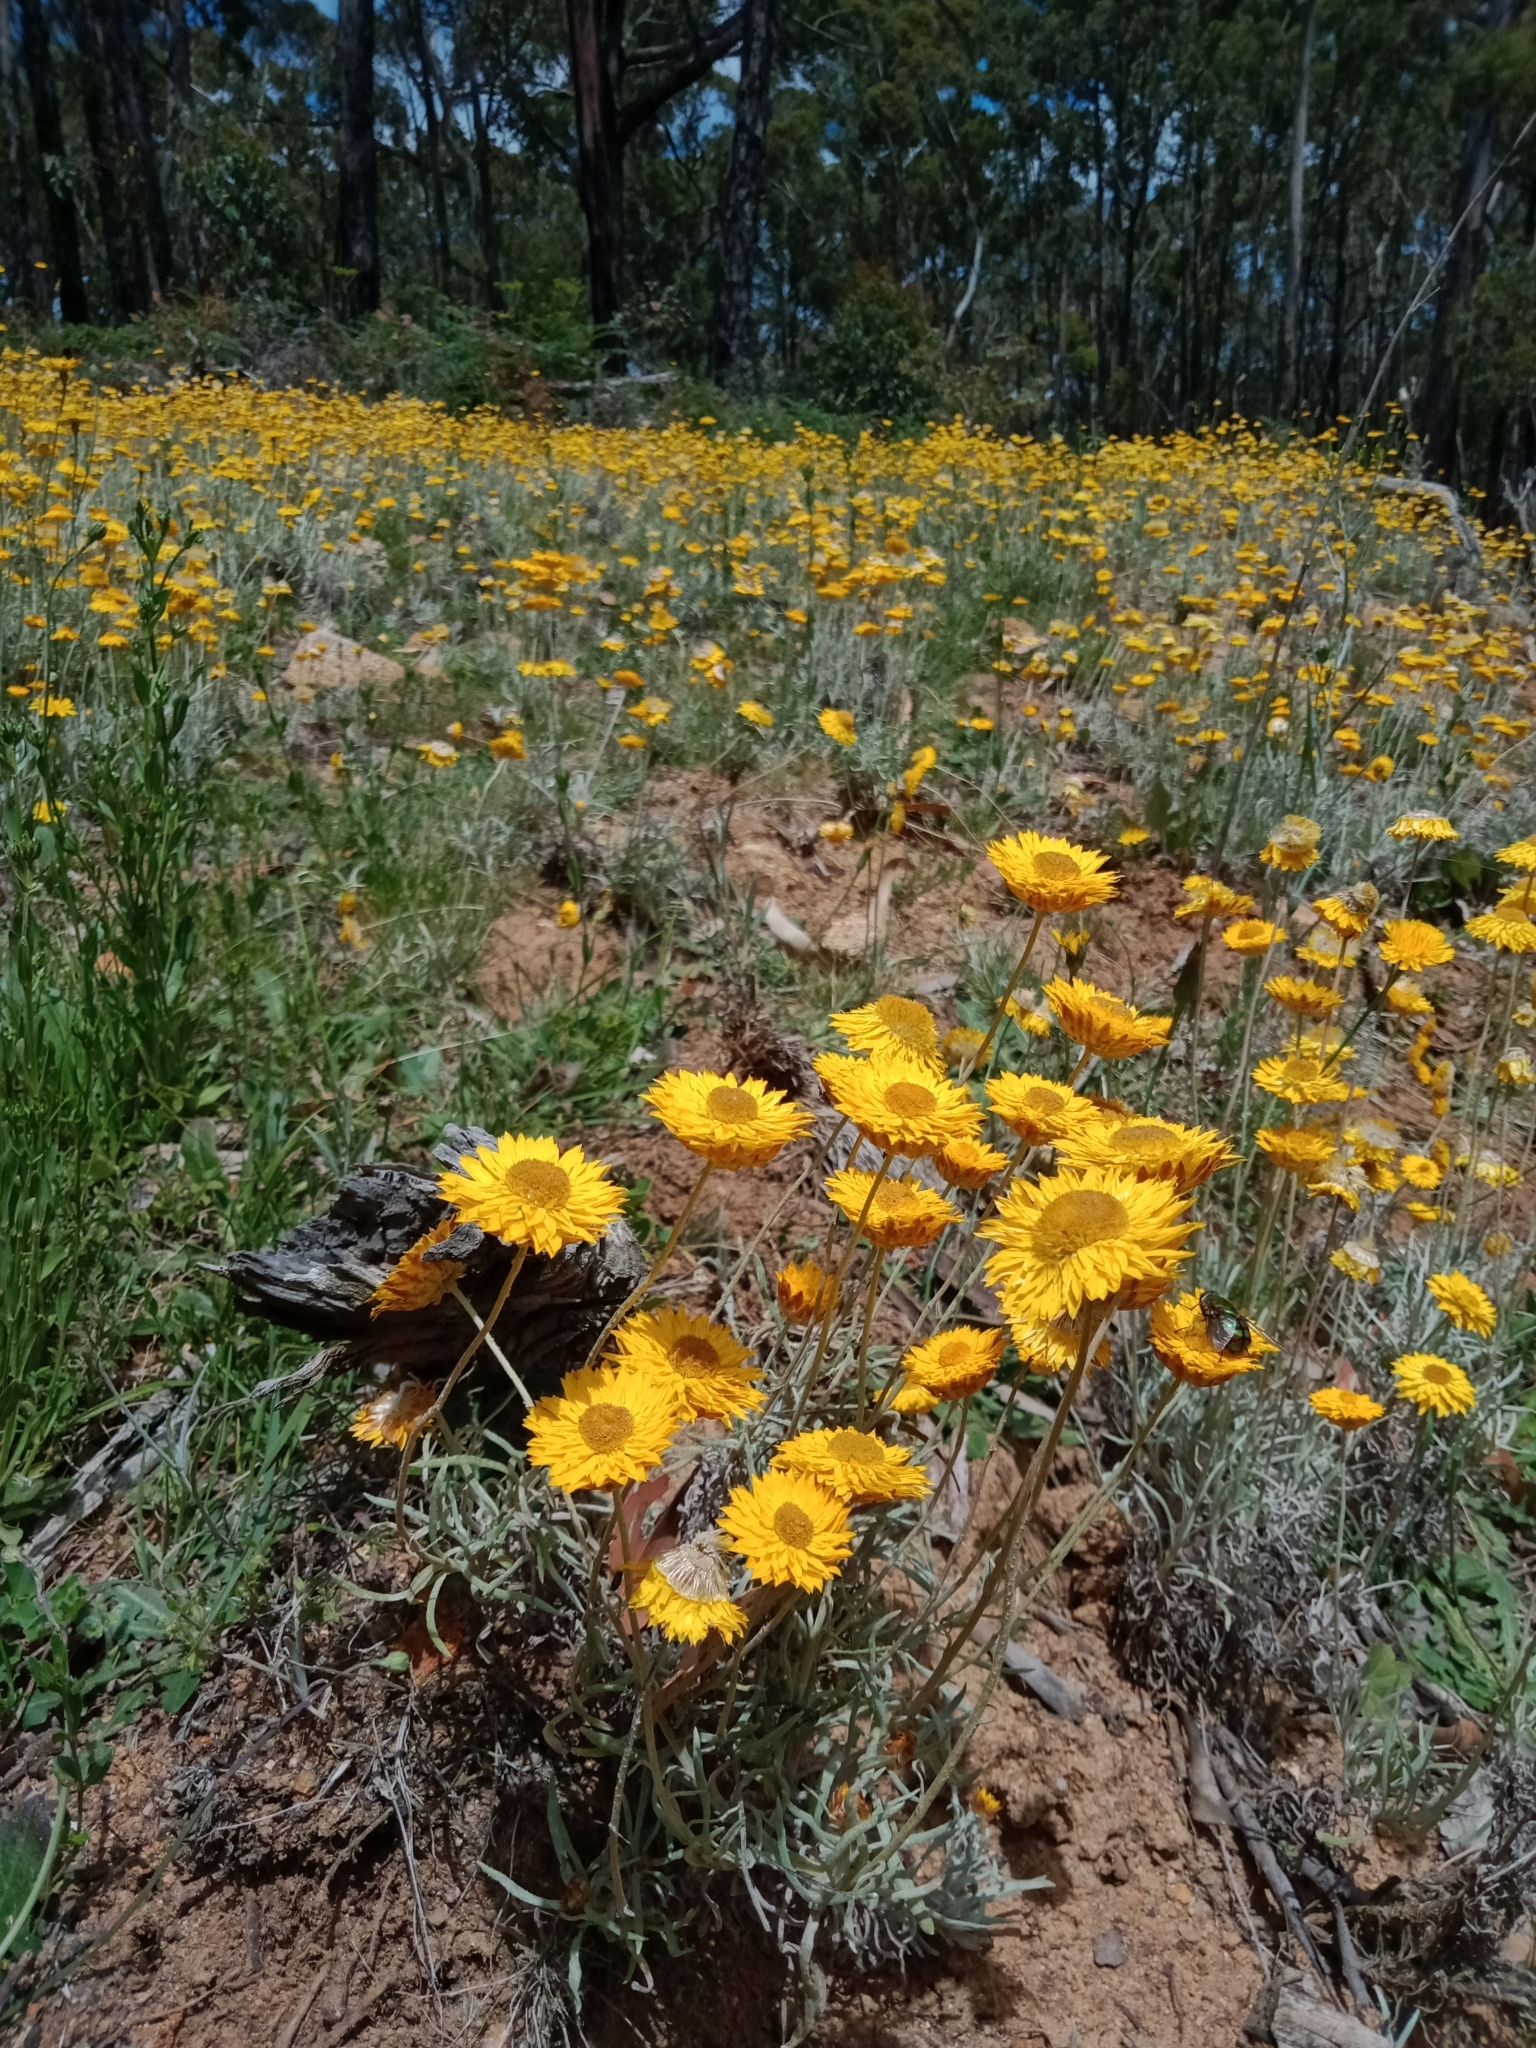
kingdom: Plantae
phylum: Tracheophyta
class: Magnoliopsida
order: Asterales
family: Asteraceae
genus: Leucochrysum
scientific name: Leucochrysum albicans
